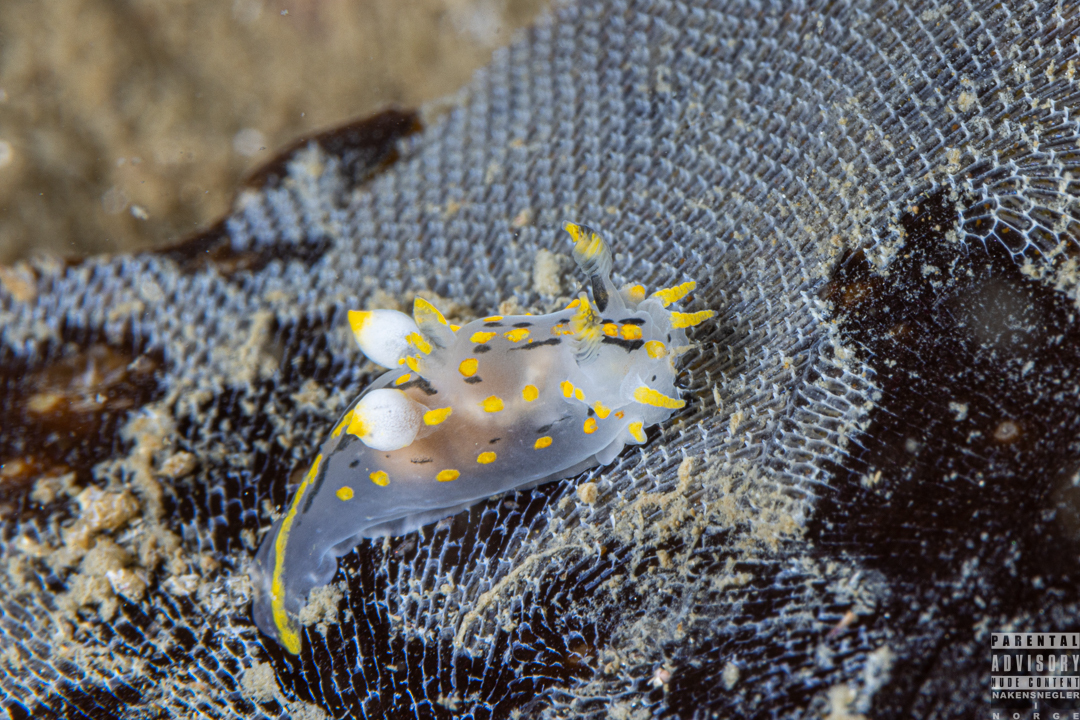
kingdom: Animalia
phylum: Mollusca
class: Gastropoda
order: Nudibranchia
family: Polyceridae
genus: Polycera
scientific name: Polycera quadrilineata
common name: Four-striped polycera
